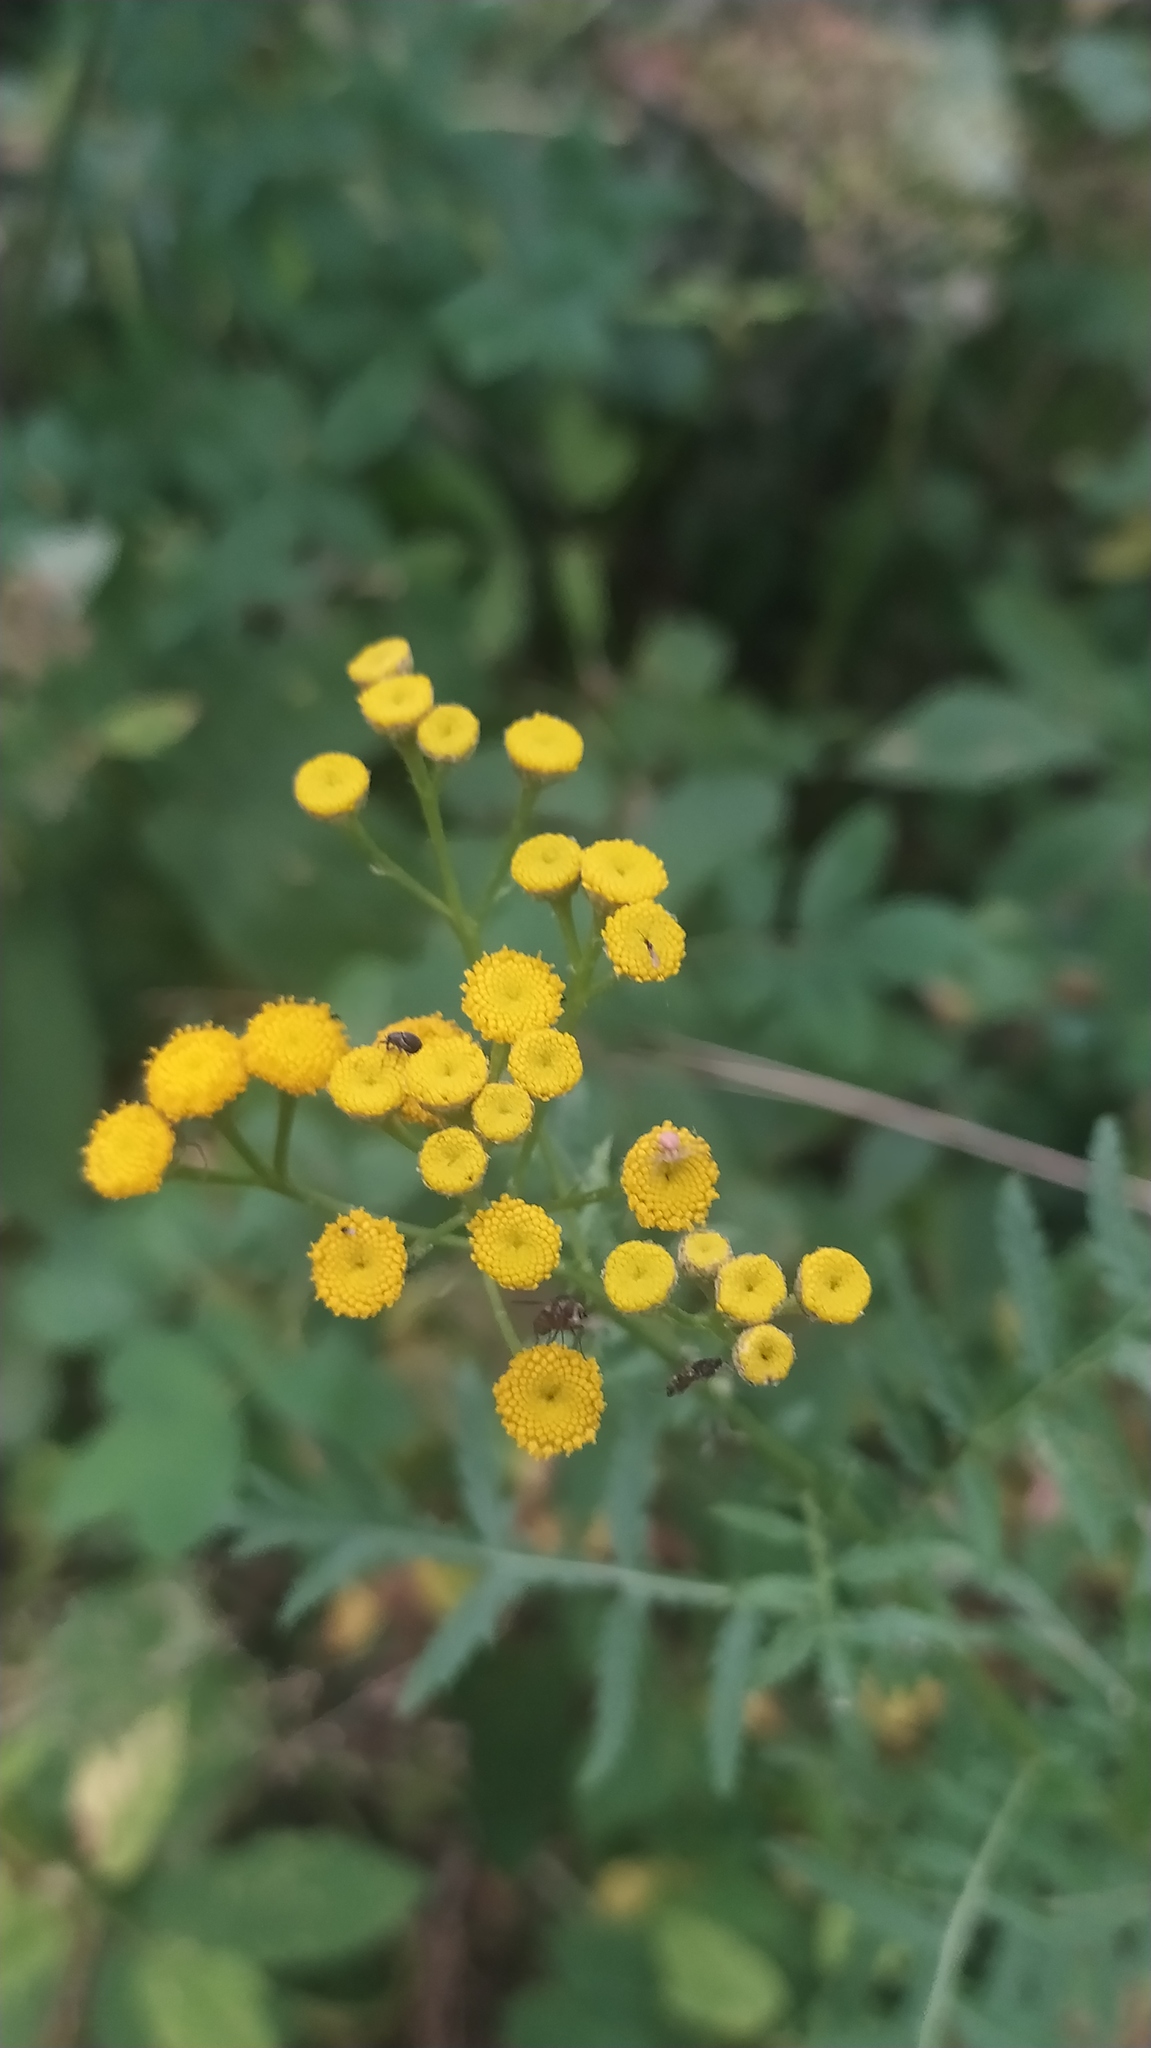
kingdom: Plantae
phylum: Tracheophyta
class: Magnoliopsida
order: Asterales
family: Asteraceae
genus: Tanacetum
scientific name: Tanacetum vulgare
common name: Common tansy
